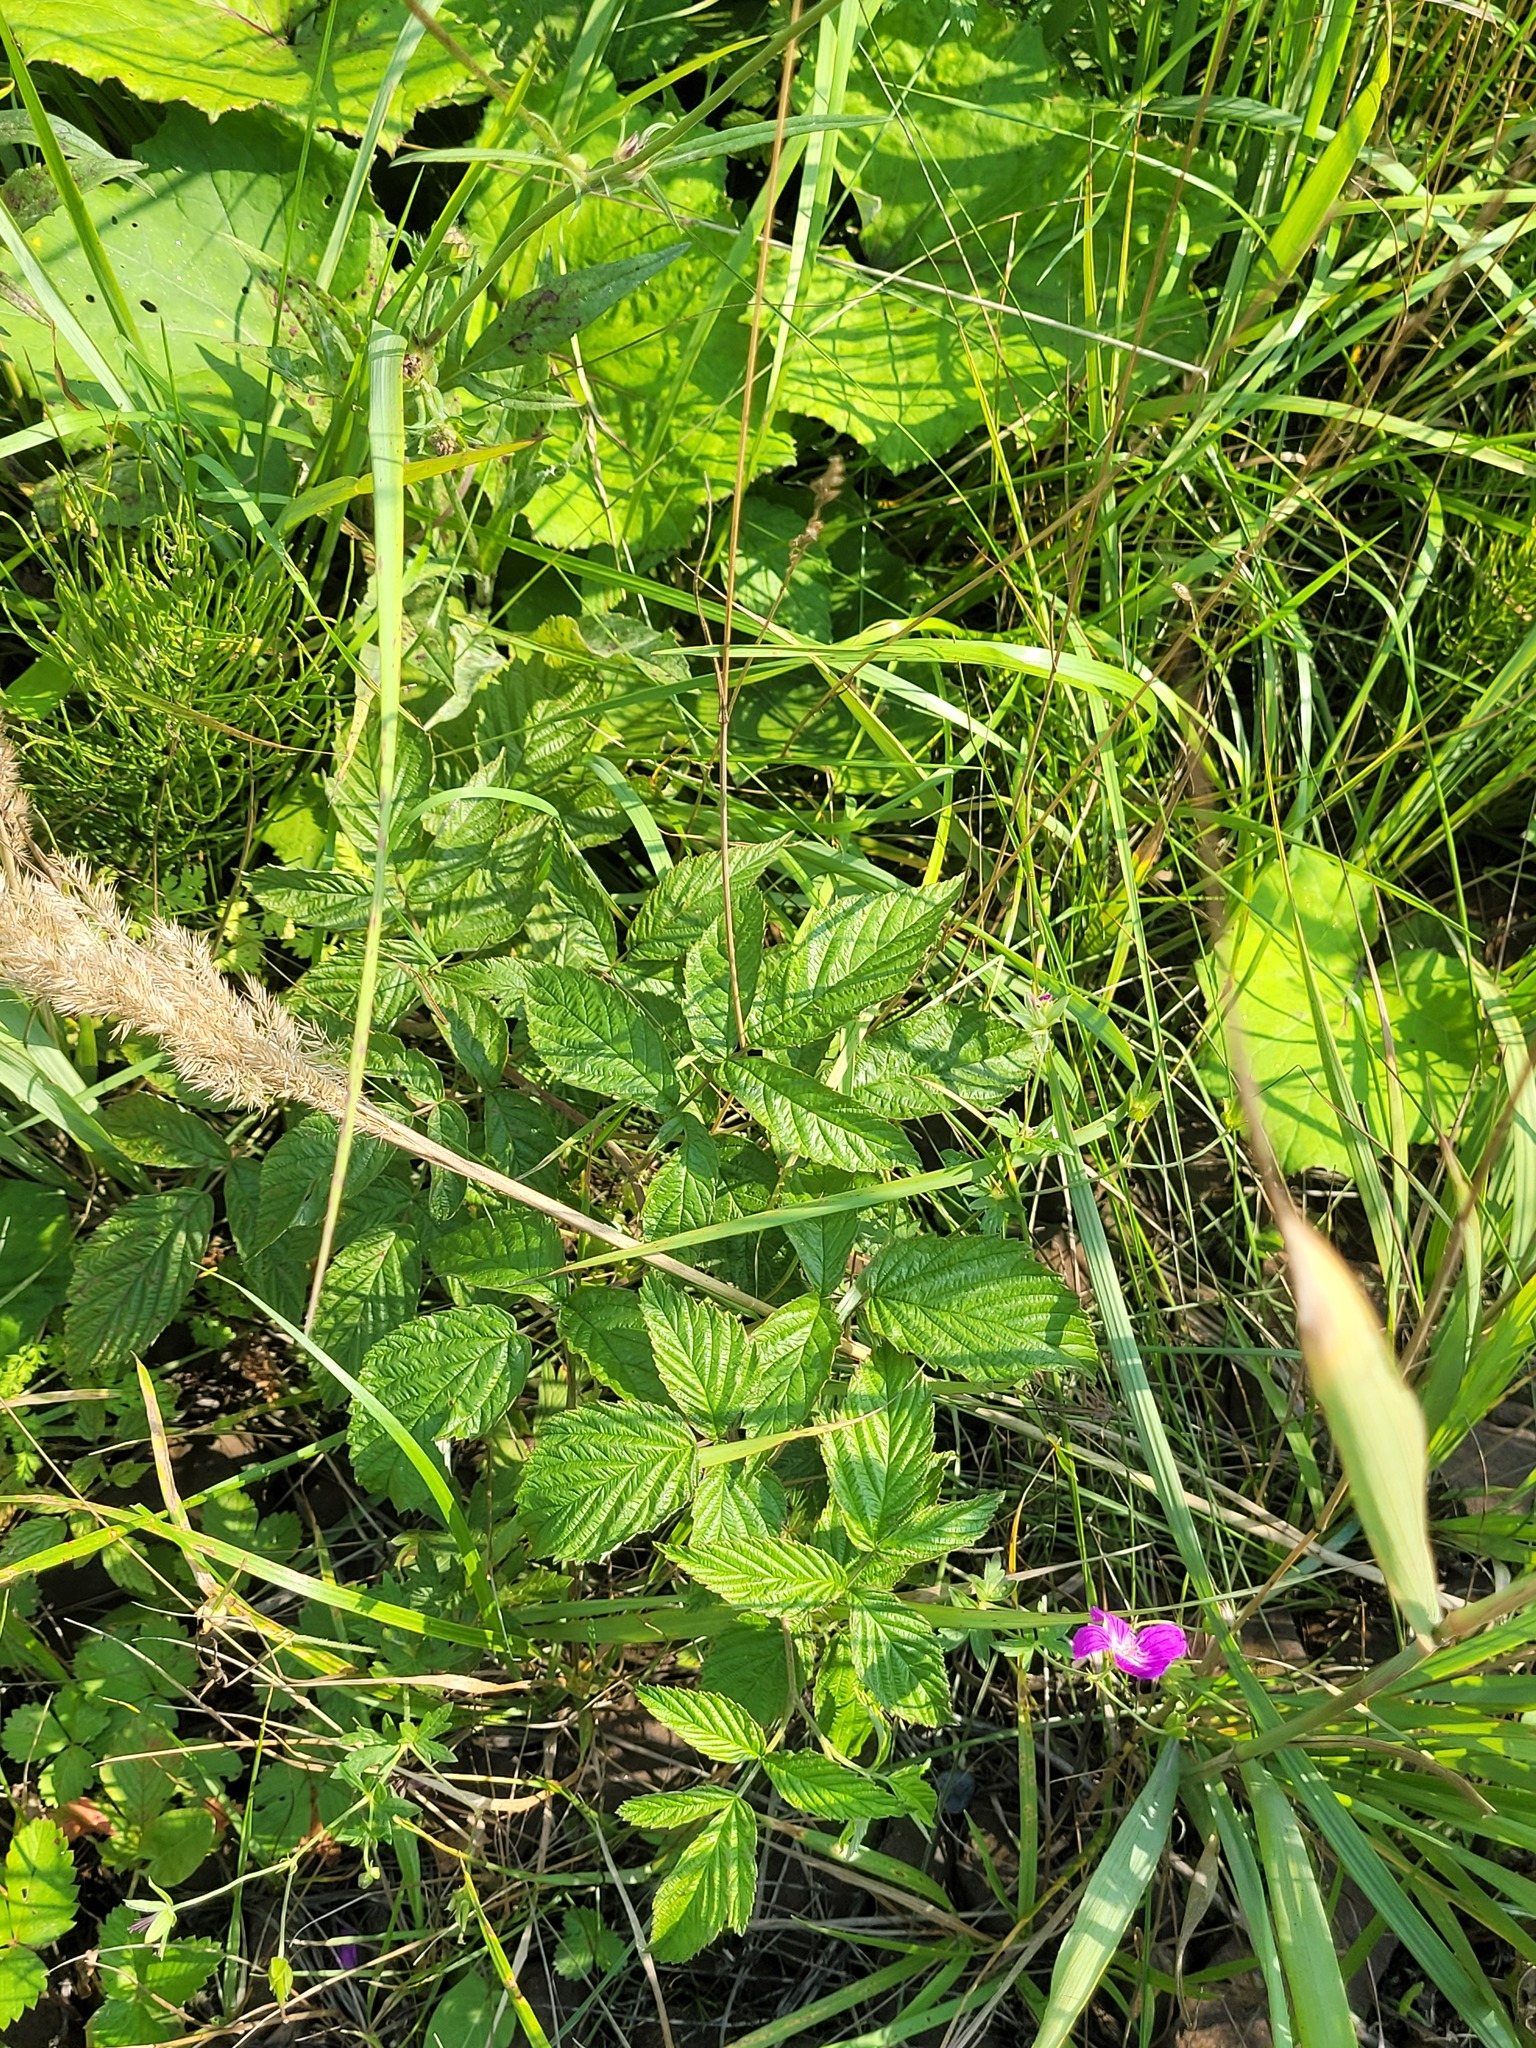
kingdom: Plantae
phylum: Tracheophyta
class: Magnoliopsida
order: Rosales
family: Rosaceae
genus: Rubus
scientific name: Rubus idaeus
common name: Raspberry
